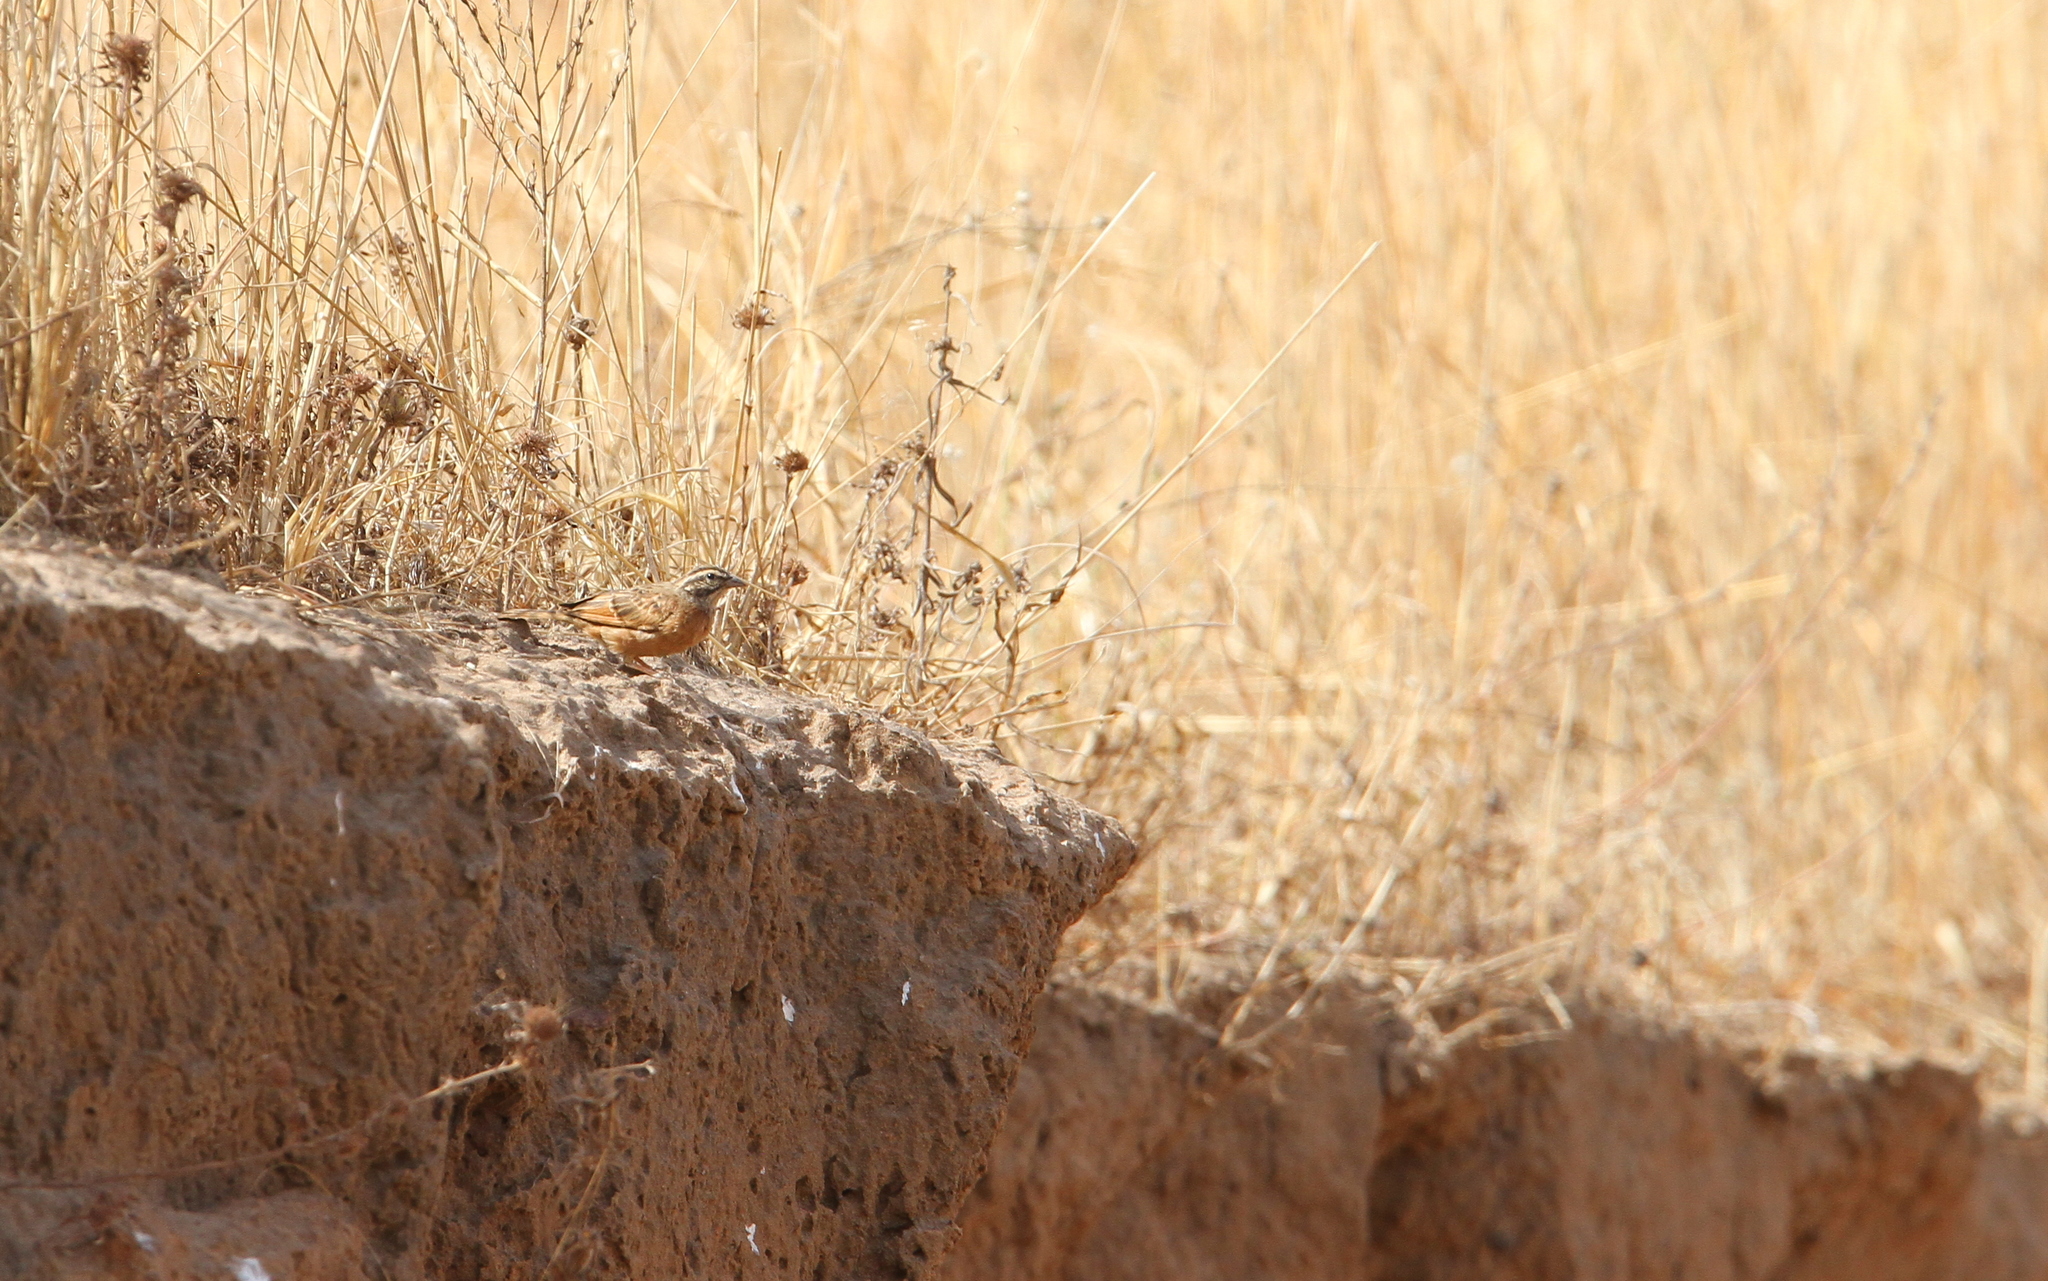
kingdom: Animalia
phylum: Chordata
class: Aves
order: Passeriformes
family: Emberizidae
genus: Emberiza
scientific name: Emberiza goslingi
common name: Gosling's bunting
